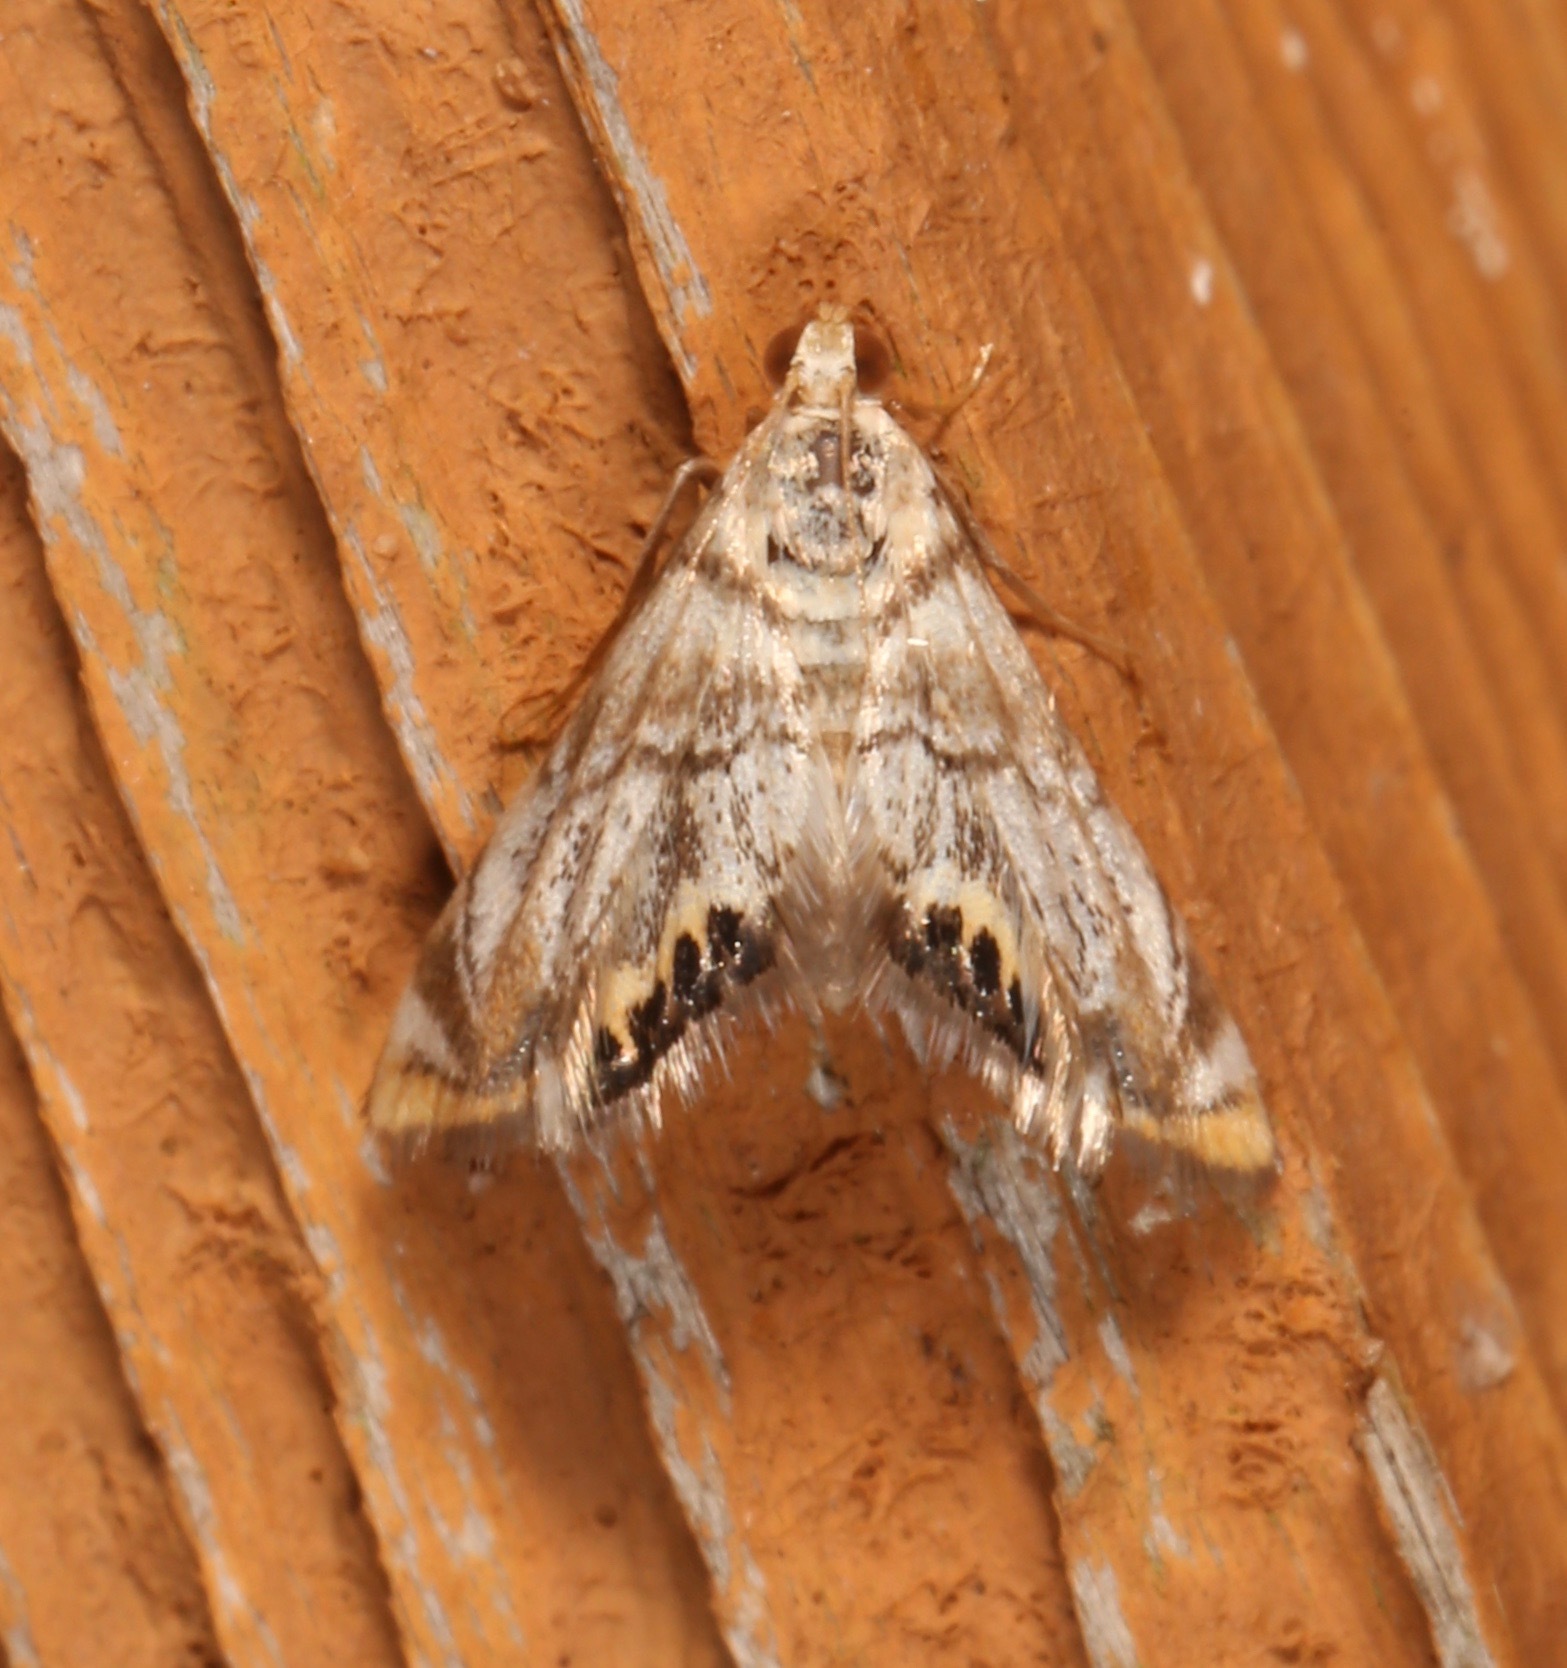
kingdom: Animalia
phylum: Arthropoda
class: Insecta
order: Lepidoptera
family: Crambidae
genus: Eoparargyractis
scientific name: Eoparargyractis irroratalis
